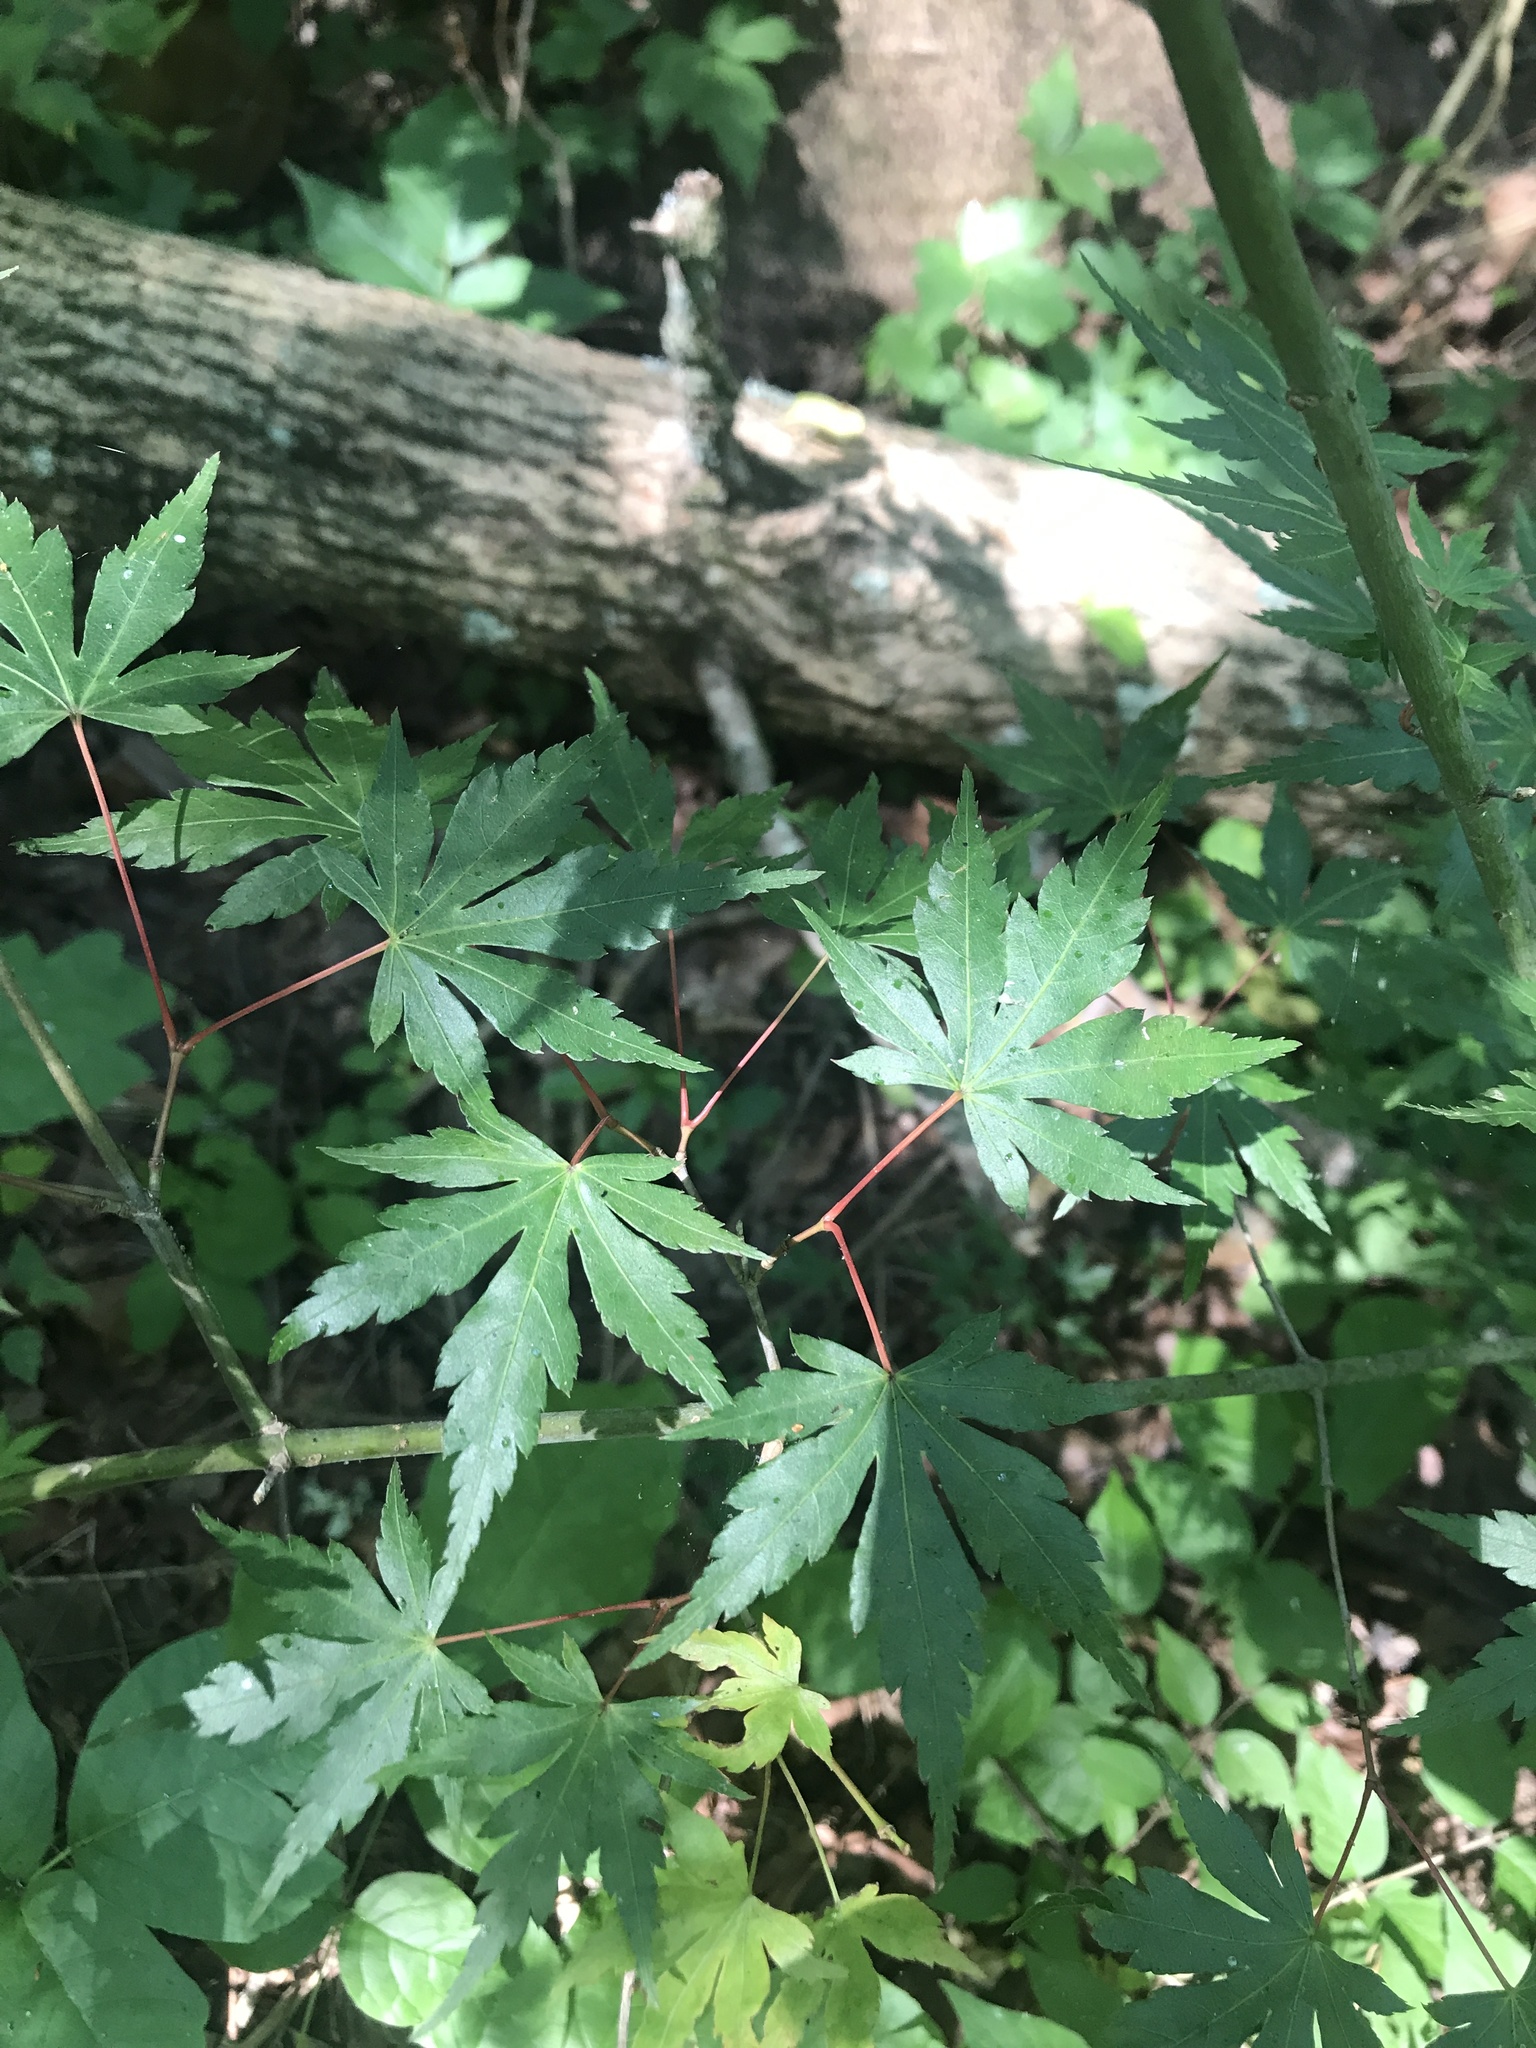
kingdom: Plantae
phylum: Tracheophyta
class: Magnoliopsida
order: Sapindales
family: Sapindaceae
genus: Acer
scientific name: Acer palmatum
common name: Japanese maple
